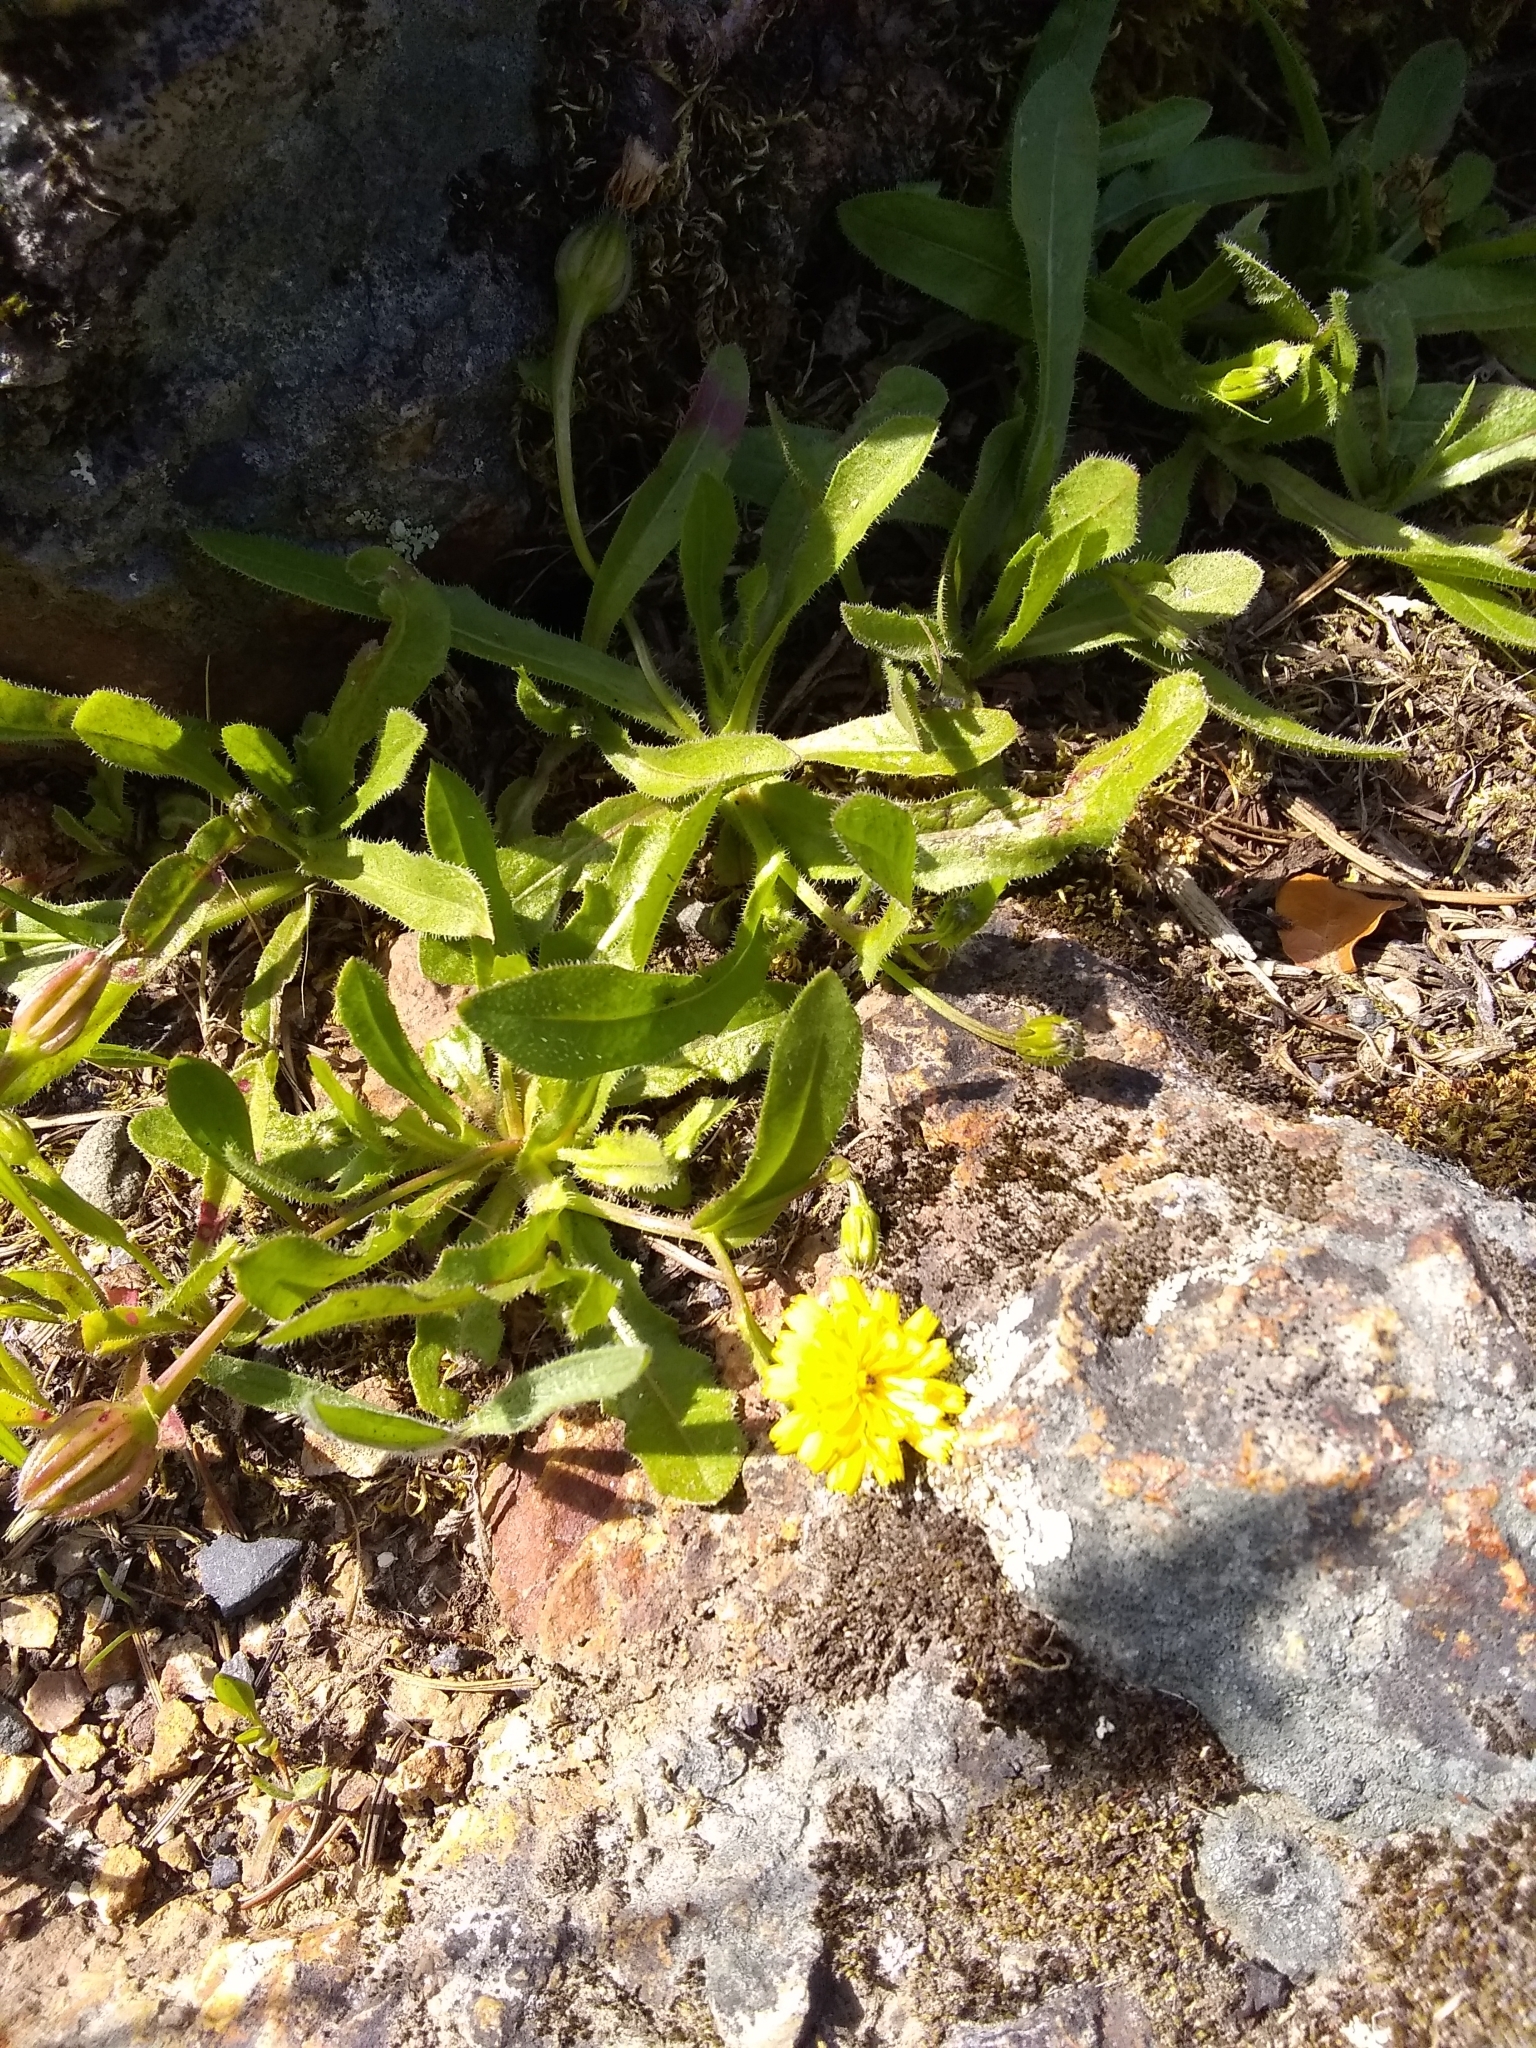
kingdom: Plantae
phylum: Tracheophyta
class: Magnoliopsida
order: Asterales
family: Asteraceae
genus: Hedypnois
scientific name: Hedypnois rhagadioloides
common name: Cretan weed
